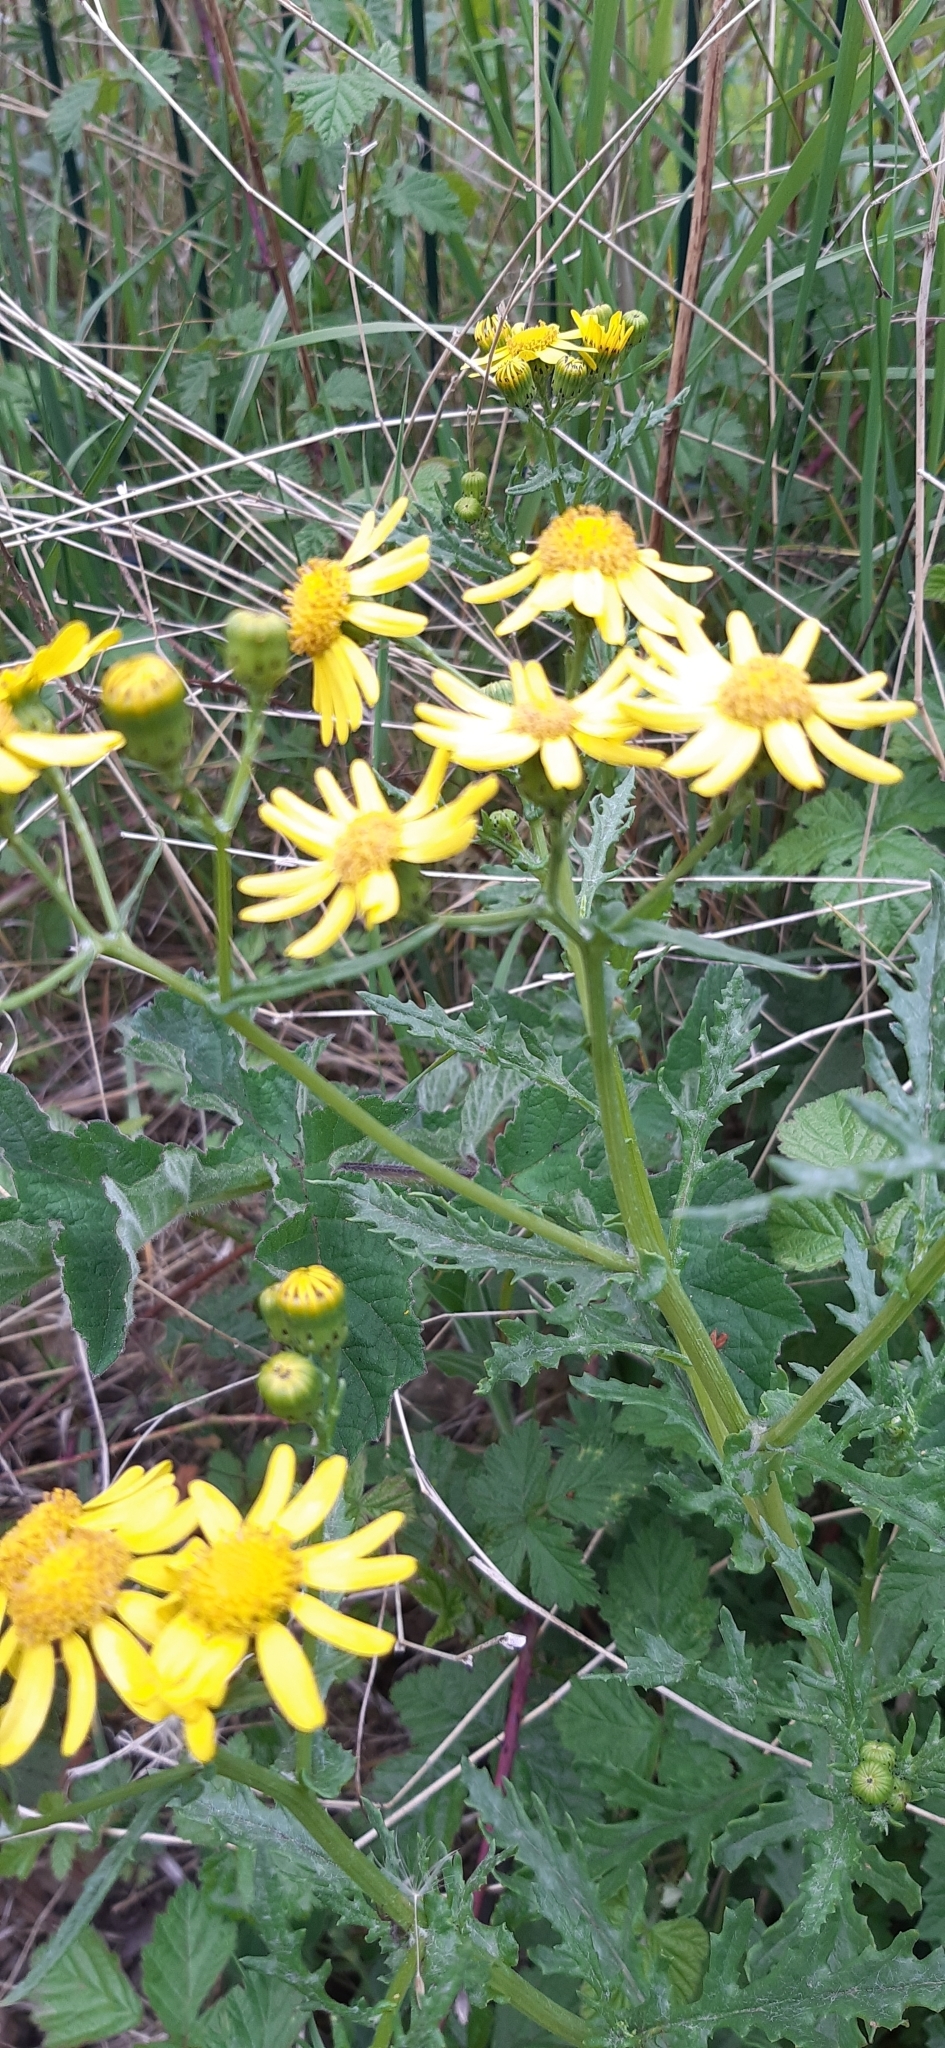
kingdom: Plantae
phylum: Tracheophyta
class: Magnoliopsida
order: Asterales
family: Asteraceae
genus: Jacobaea
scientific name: Jacobaea erucifolia
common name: Hoary ragwort
